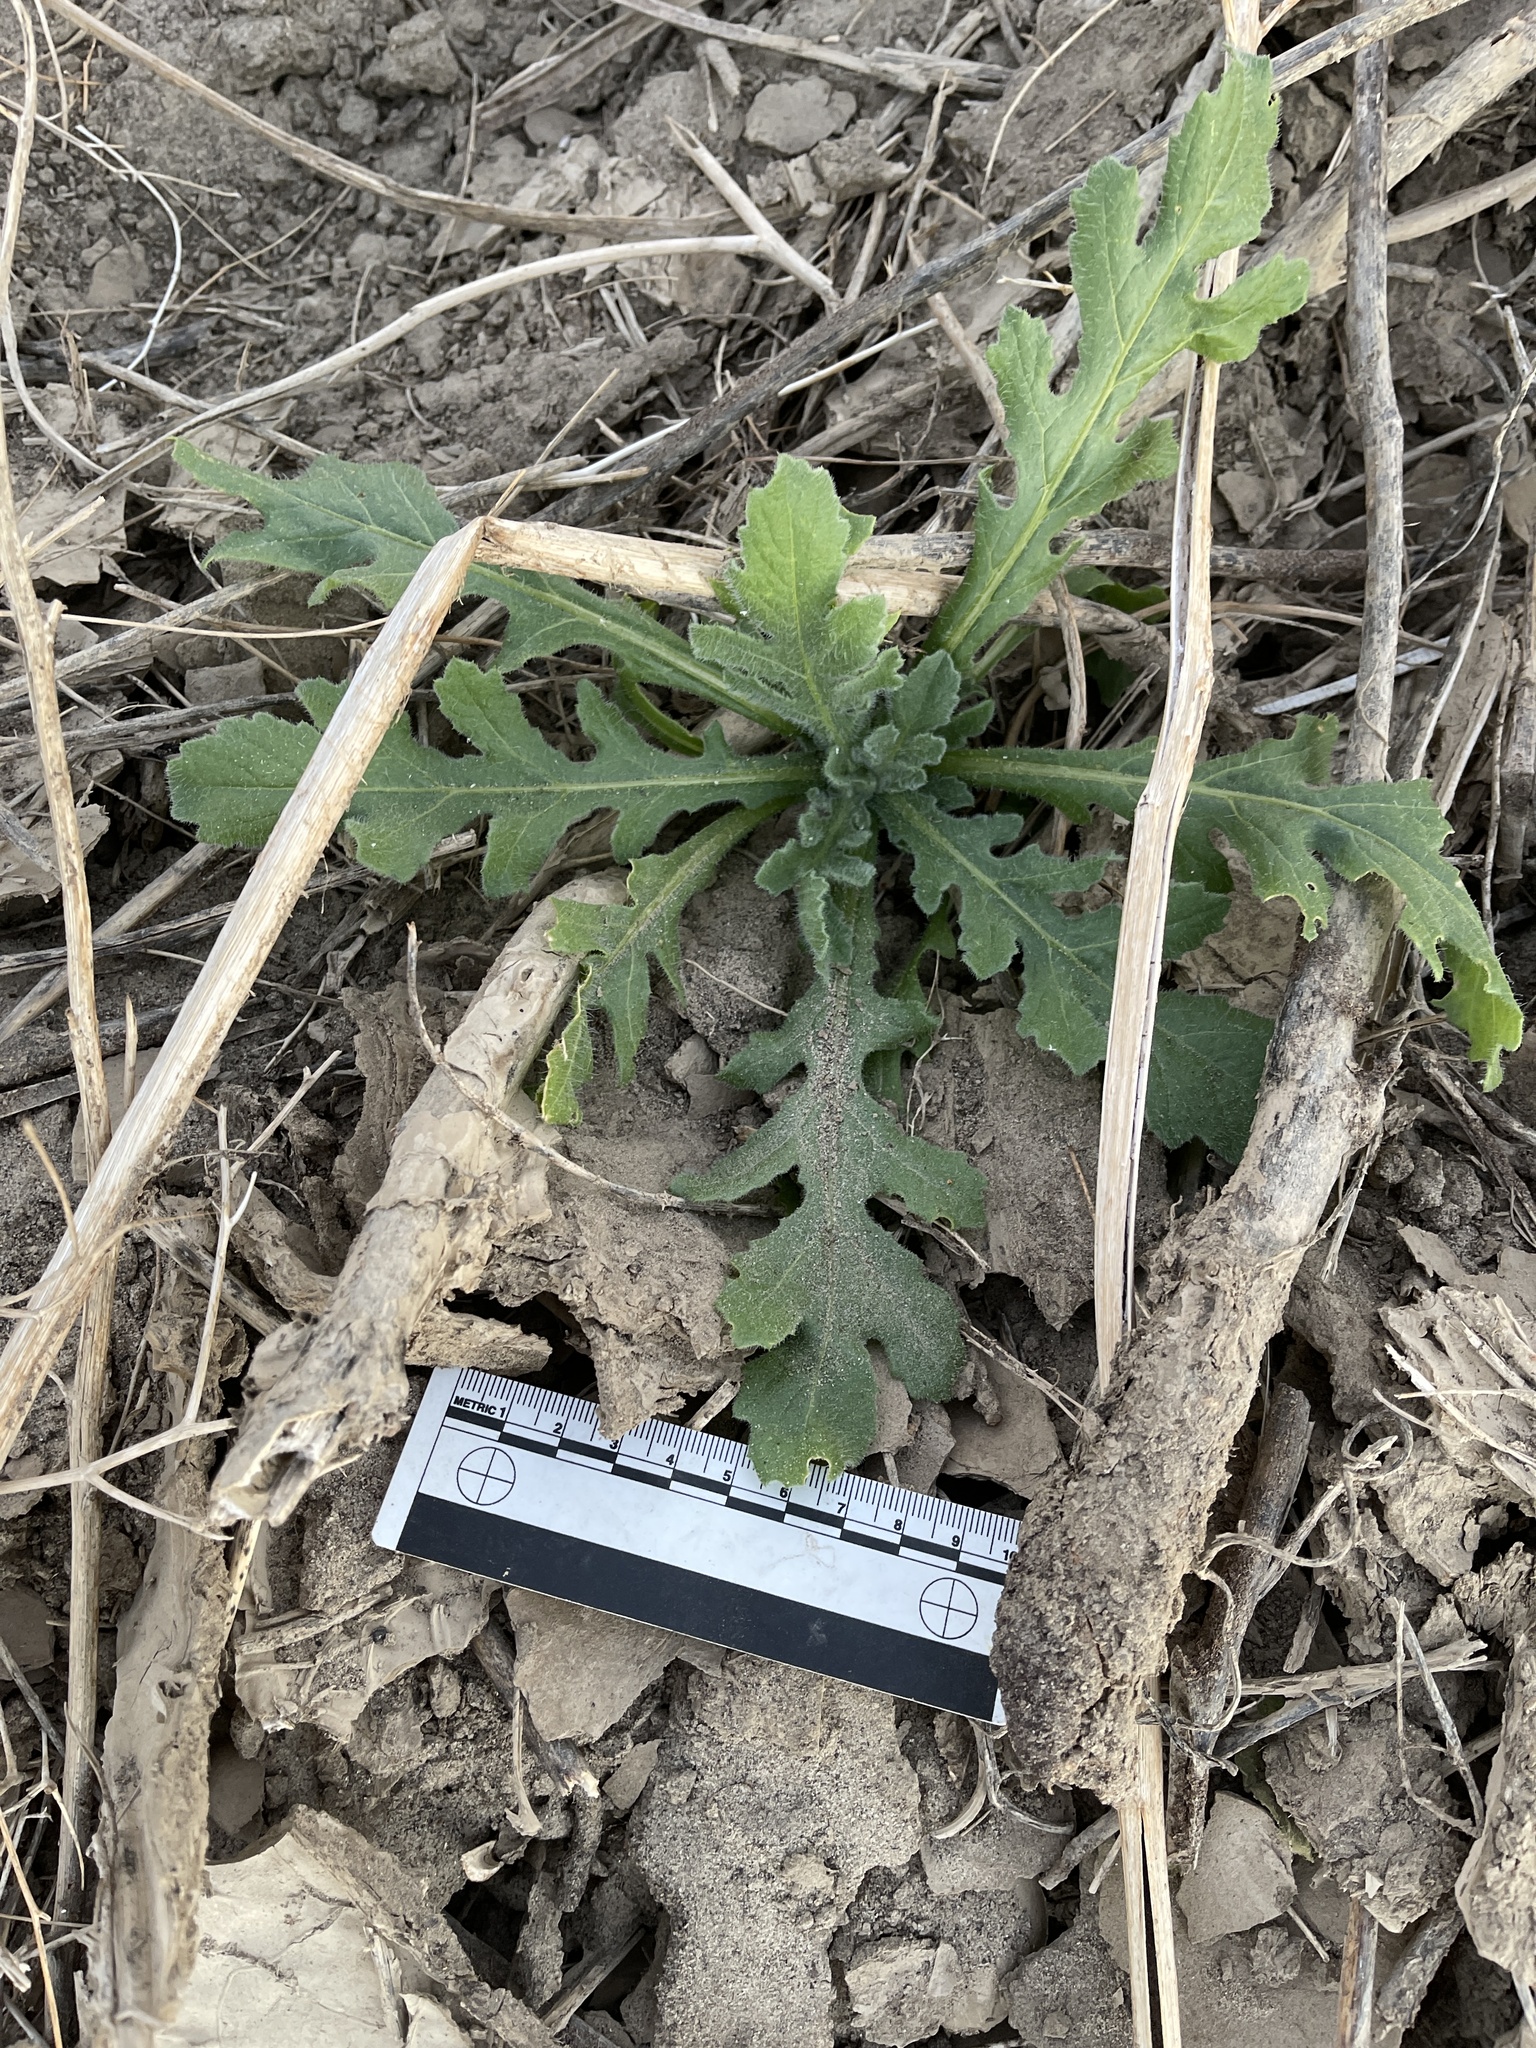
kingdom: Plantae
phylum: Tracheophyta
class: Magnoliopsida
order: Asterales
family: Asteraceae
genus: Volutaria
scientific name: Volutaria tubuliflora
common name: Desert knapweed
